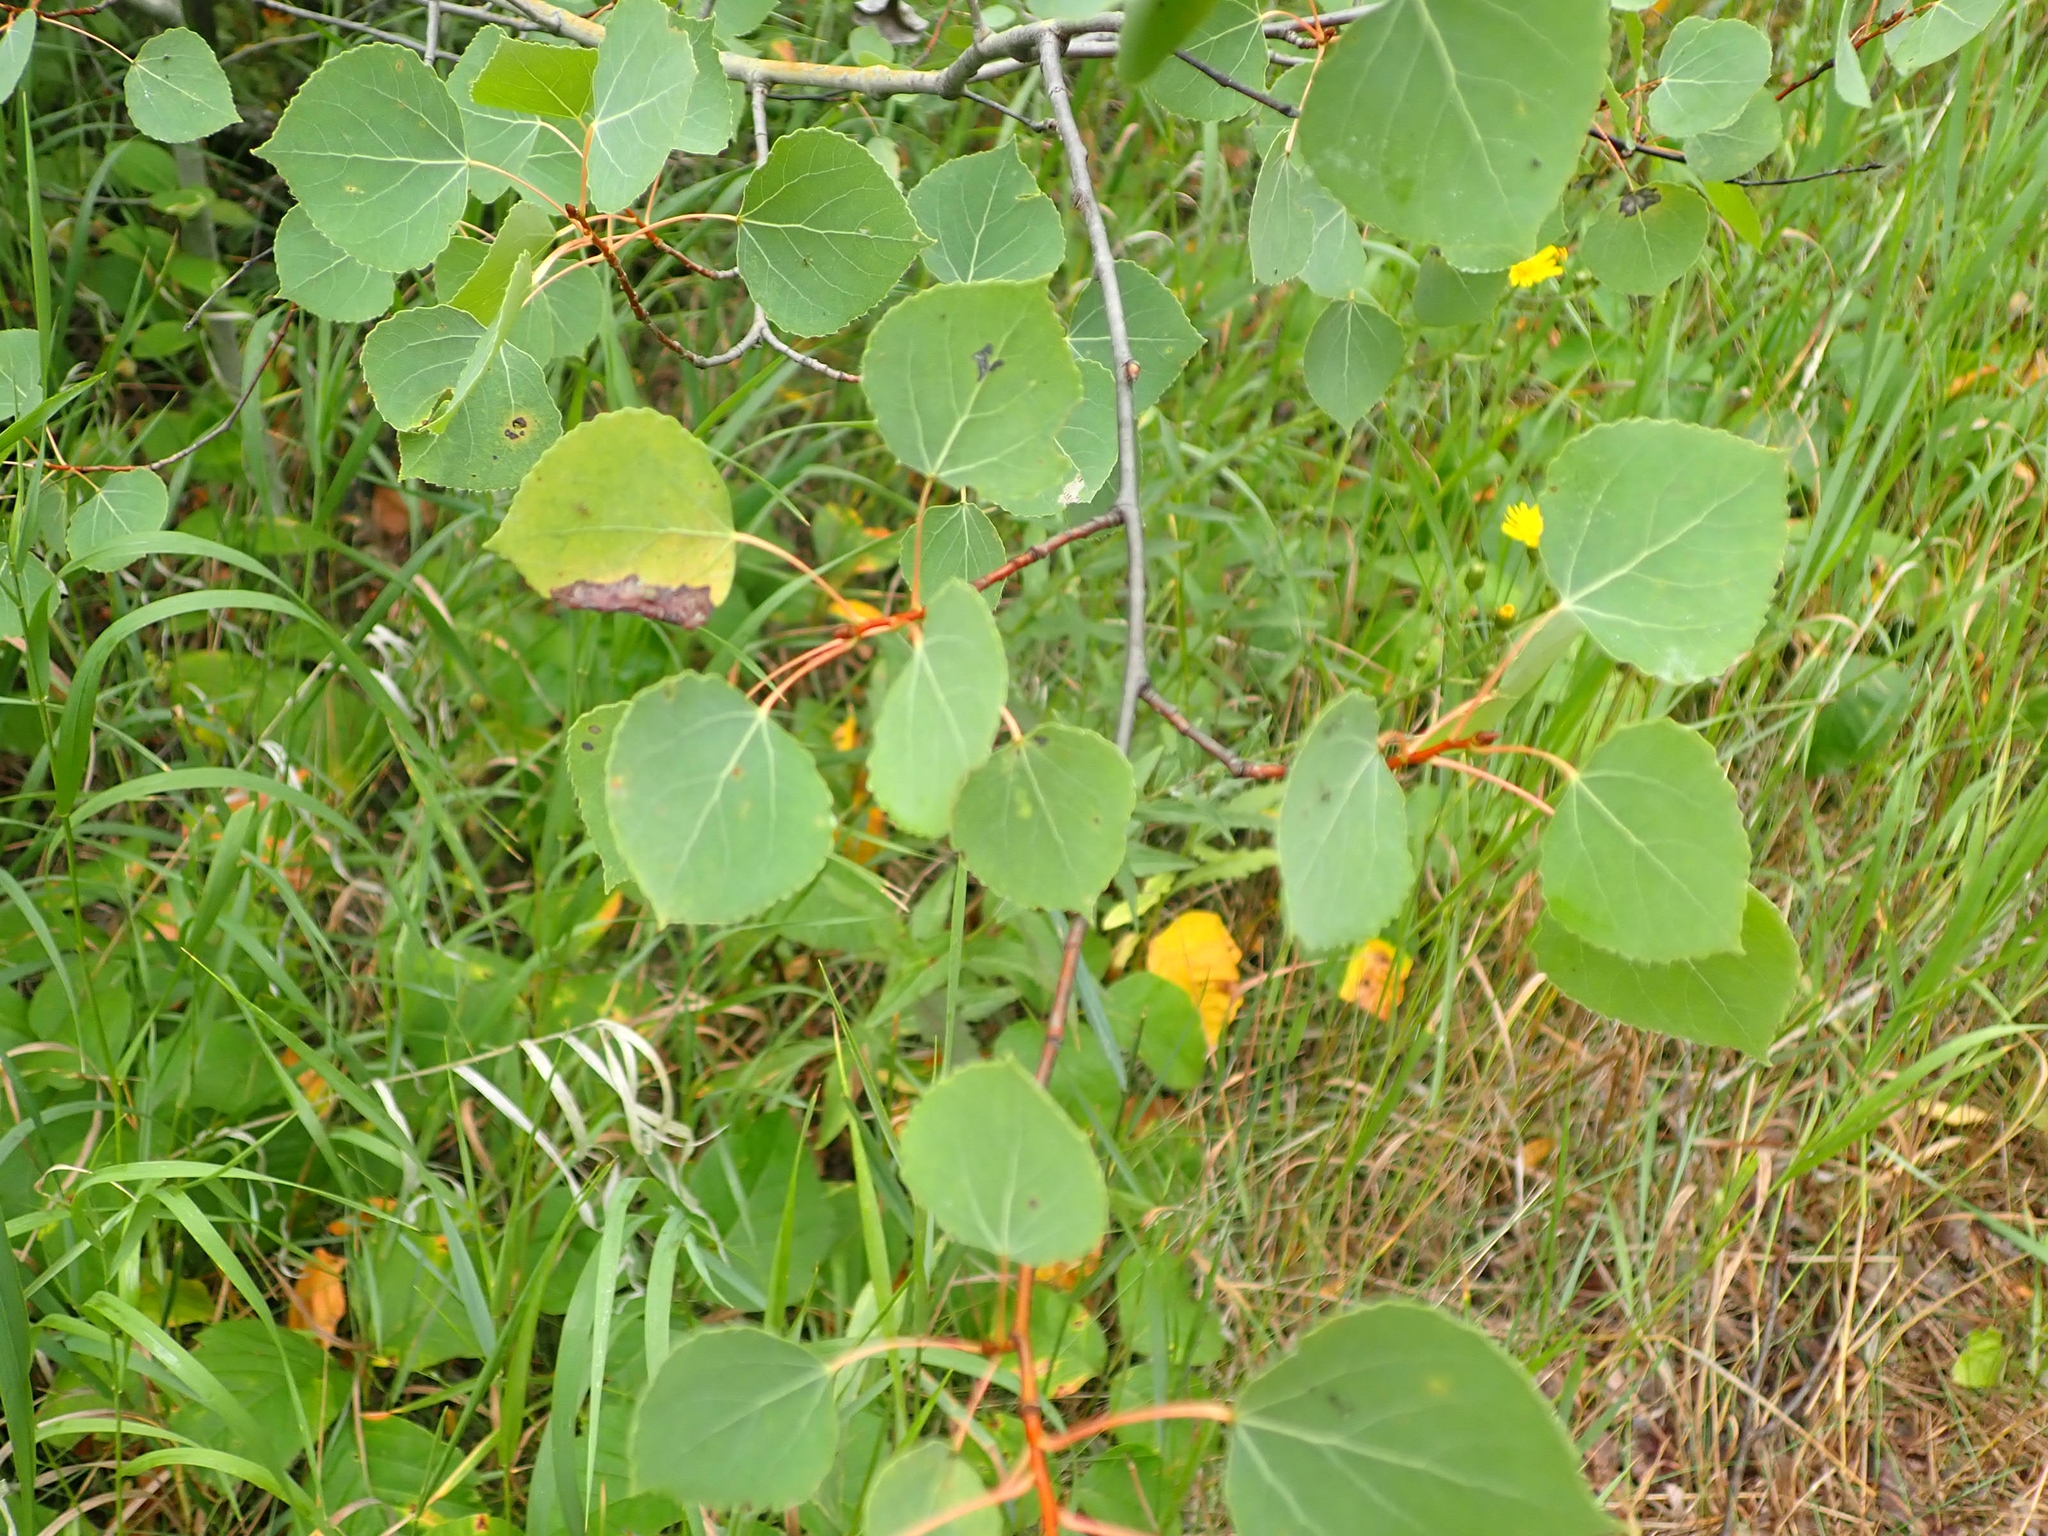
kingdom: Plantae
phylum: Tracheophyta
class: Magnoliopsida
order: Malpighiales
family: Salicaceae
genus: Populus
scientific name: Populus tremuloides
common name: Quaking aspen
